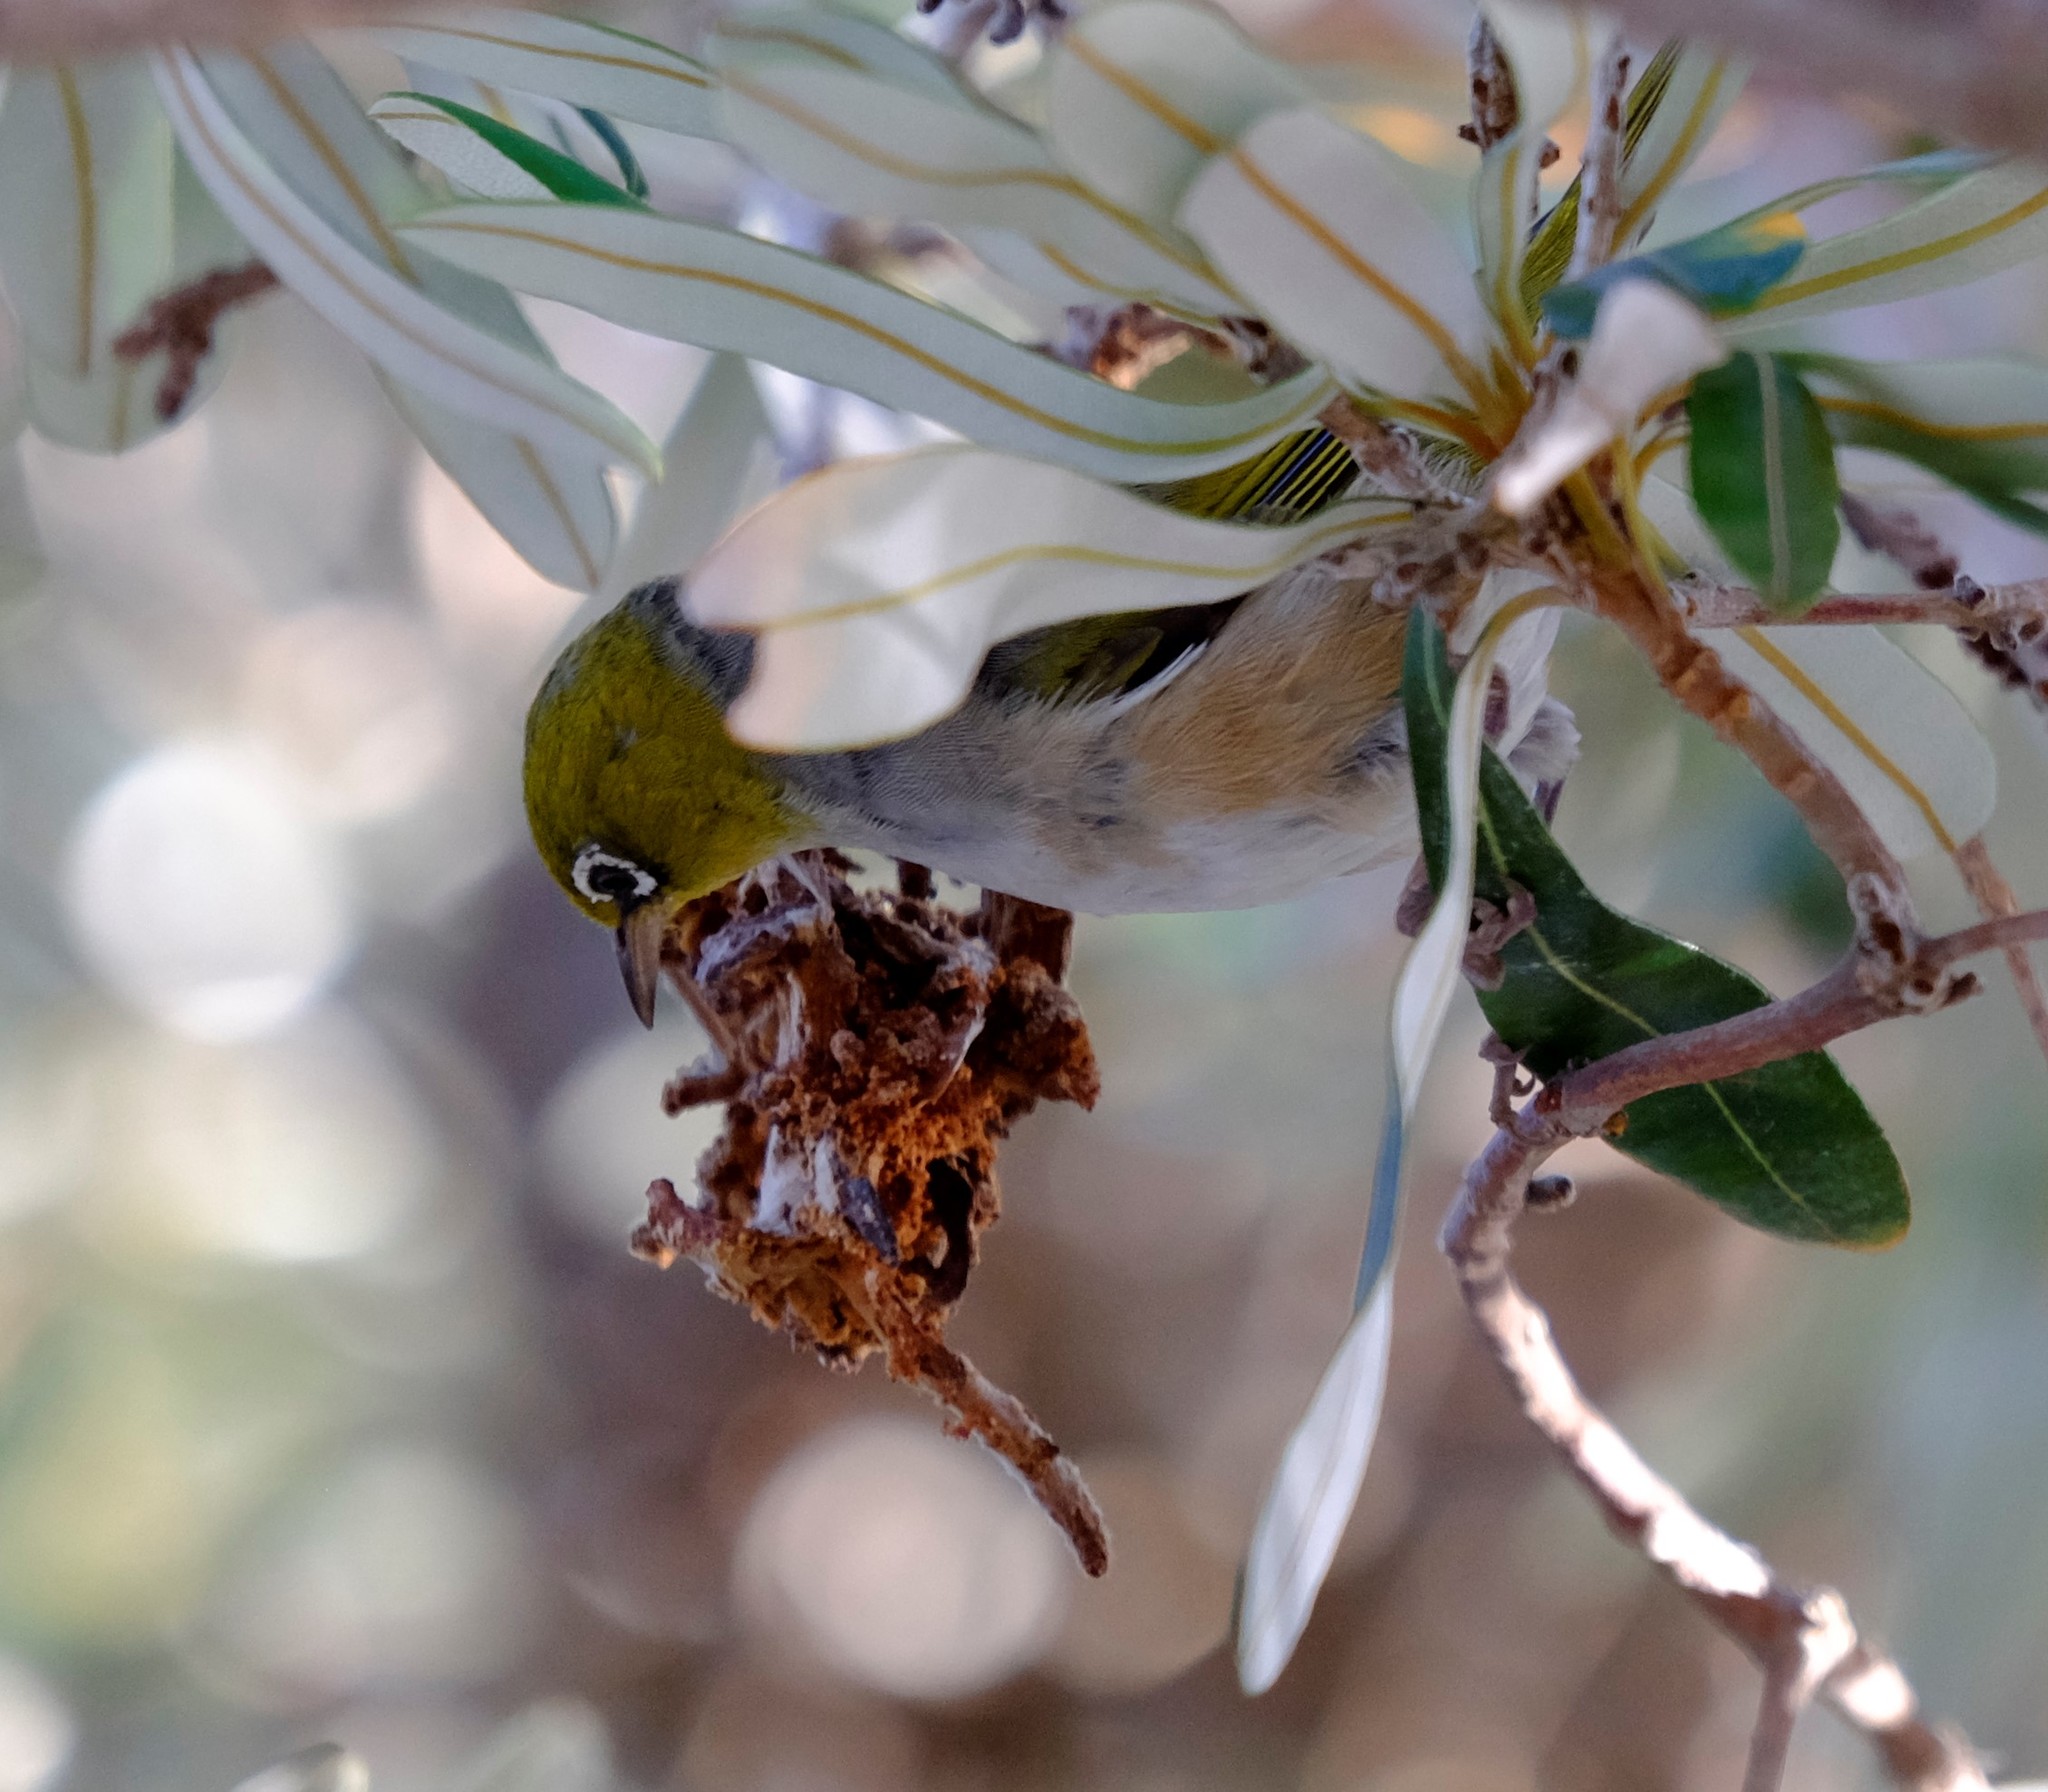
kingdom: Animalia
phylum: Chordata
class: Aves
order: Passeriformes
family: Zosteropidae
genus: Zosterops
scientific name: Zosterops lateralis
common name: Silvereye
